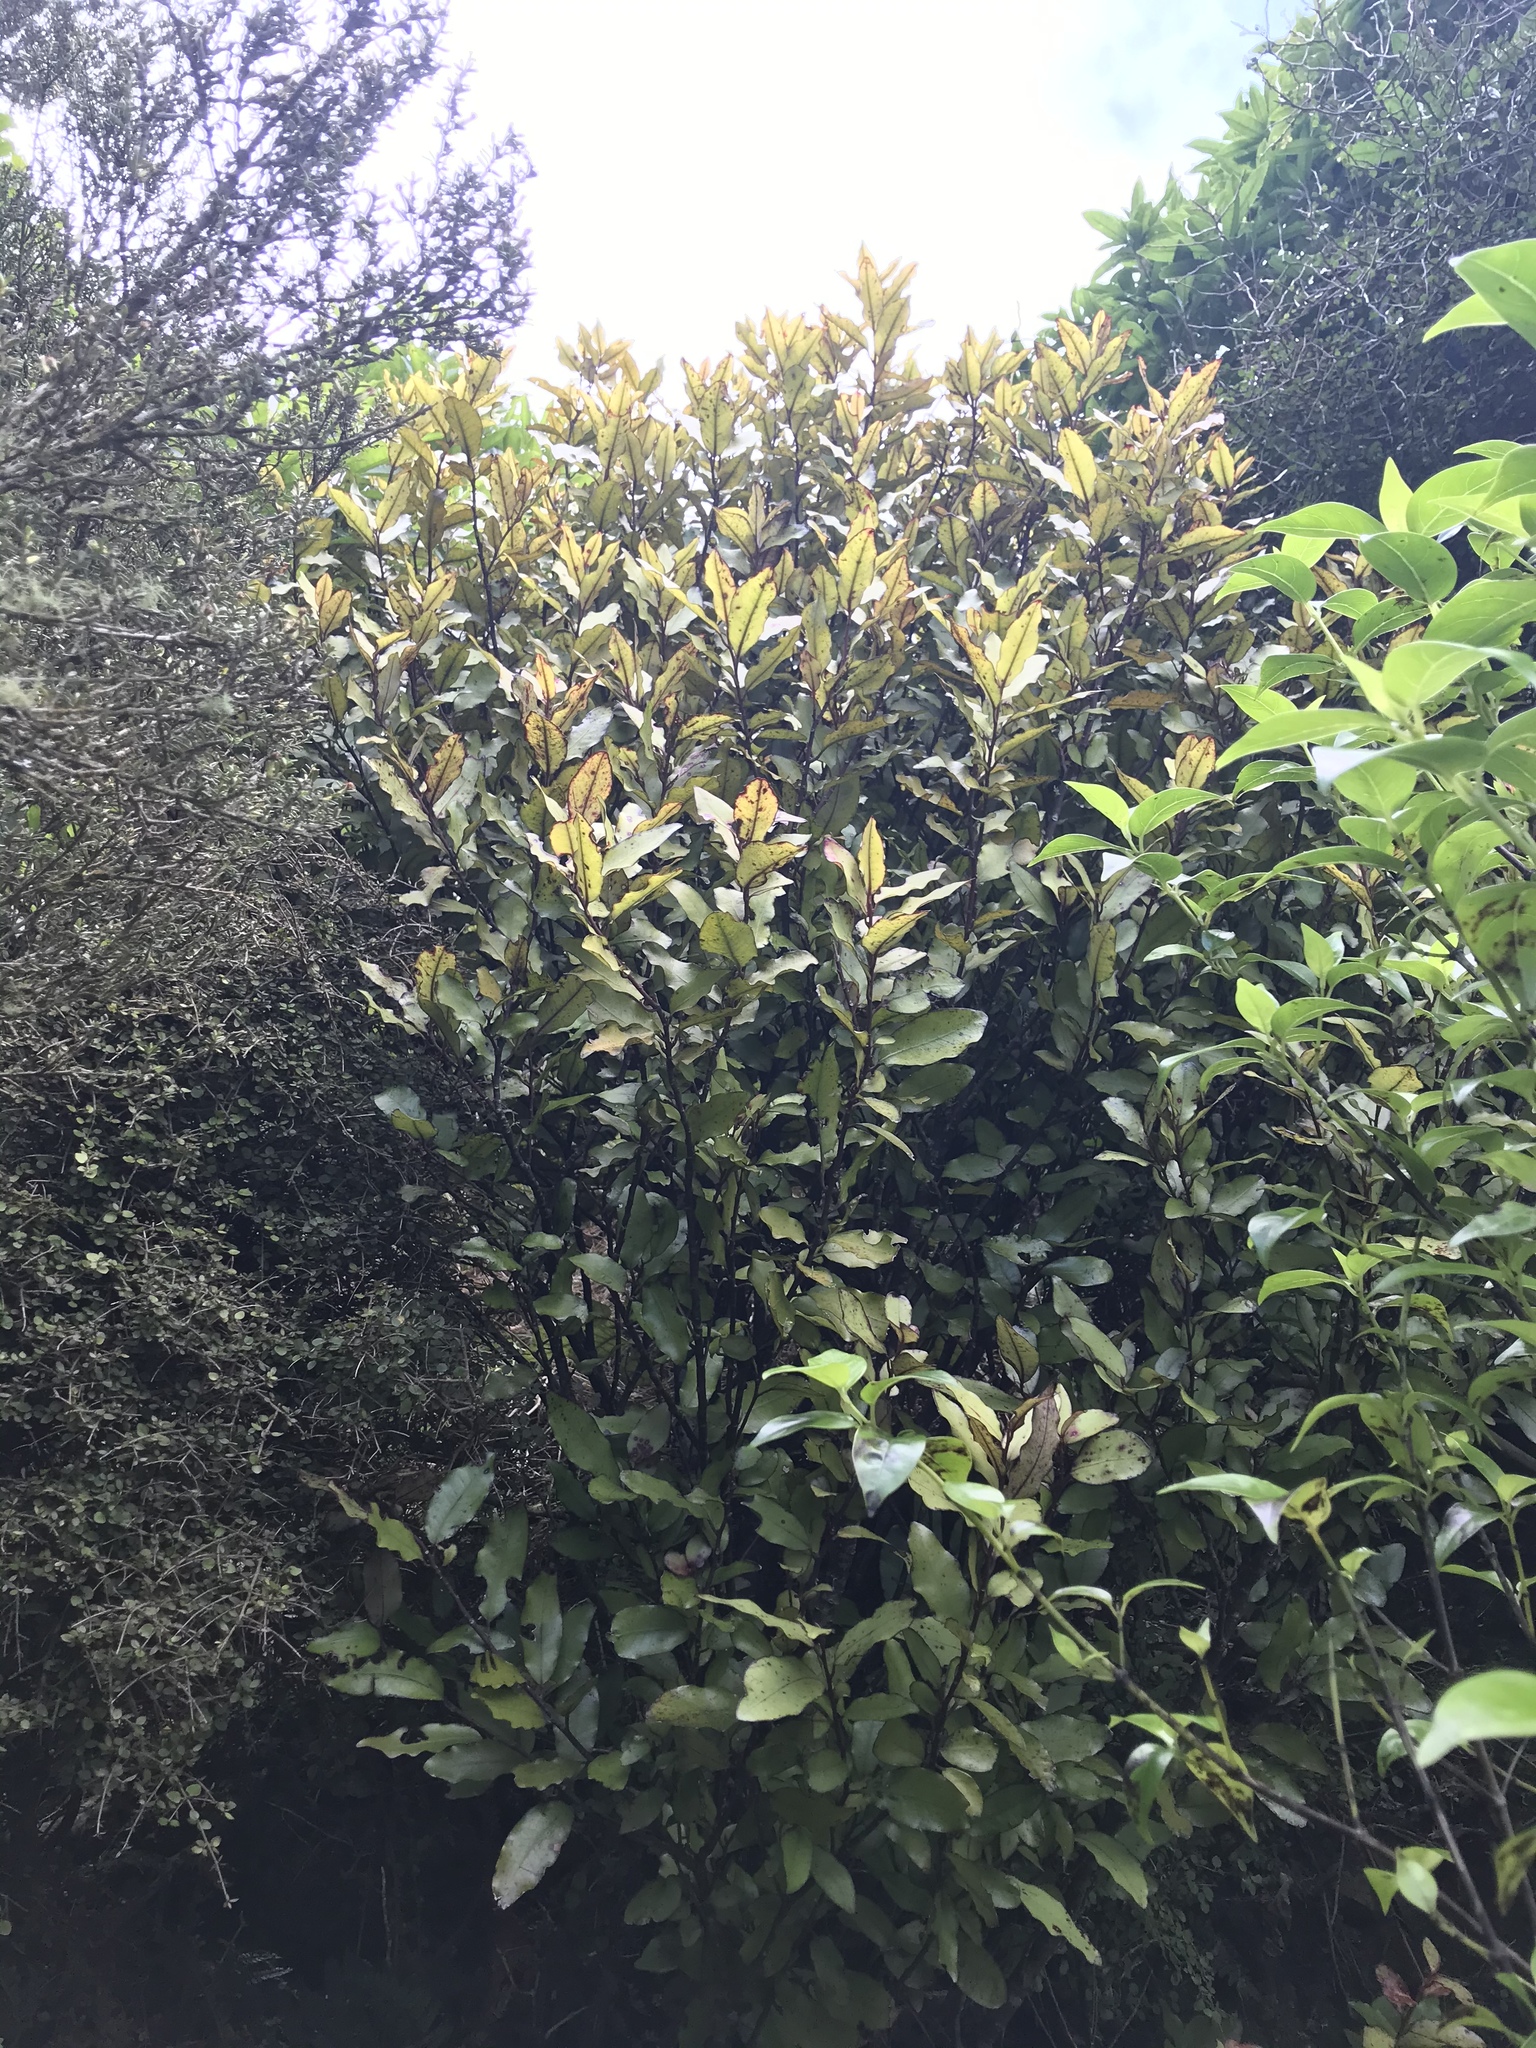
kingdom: Plantae
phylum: Tracheophyta
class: Magnoliopsida
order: Canellales
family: Winteraceae
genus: Pseudowintera
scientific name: Pseudowintera colorata
